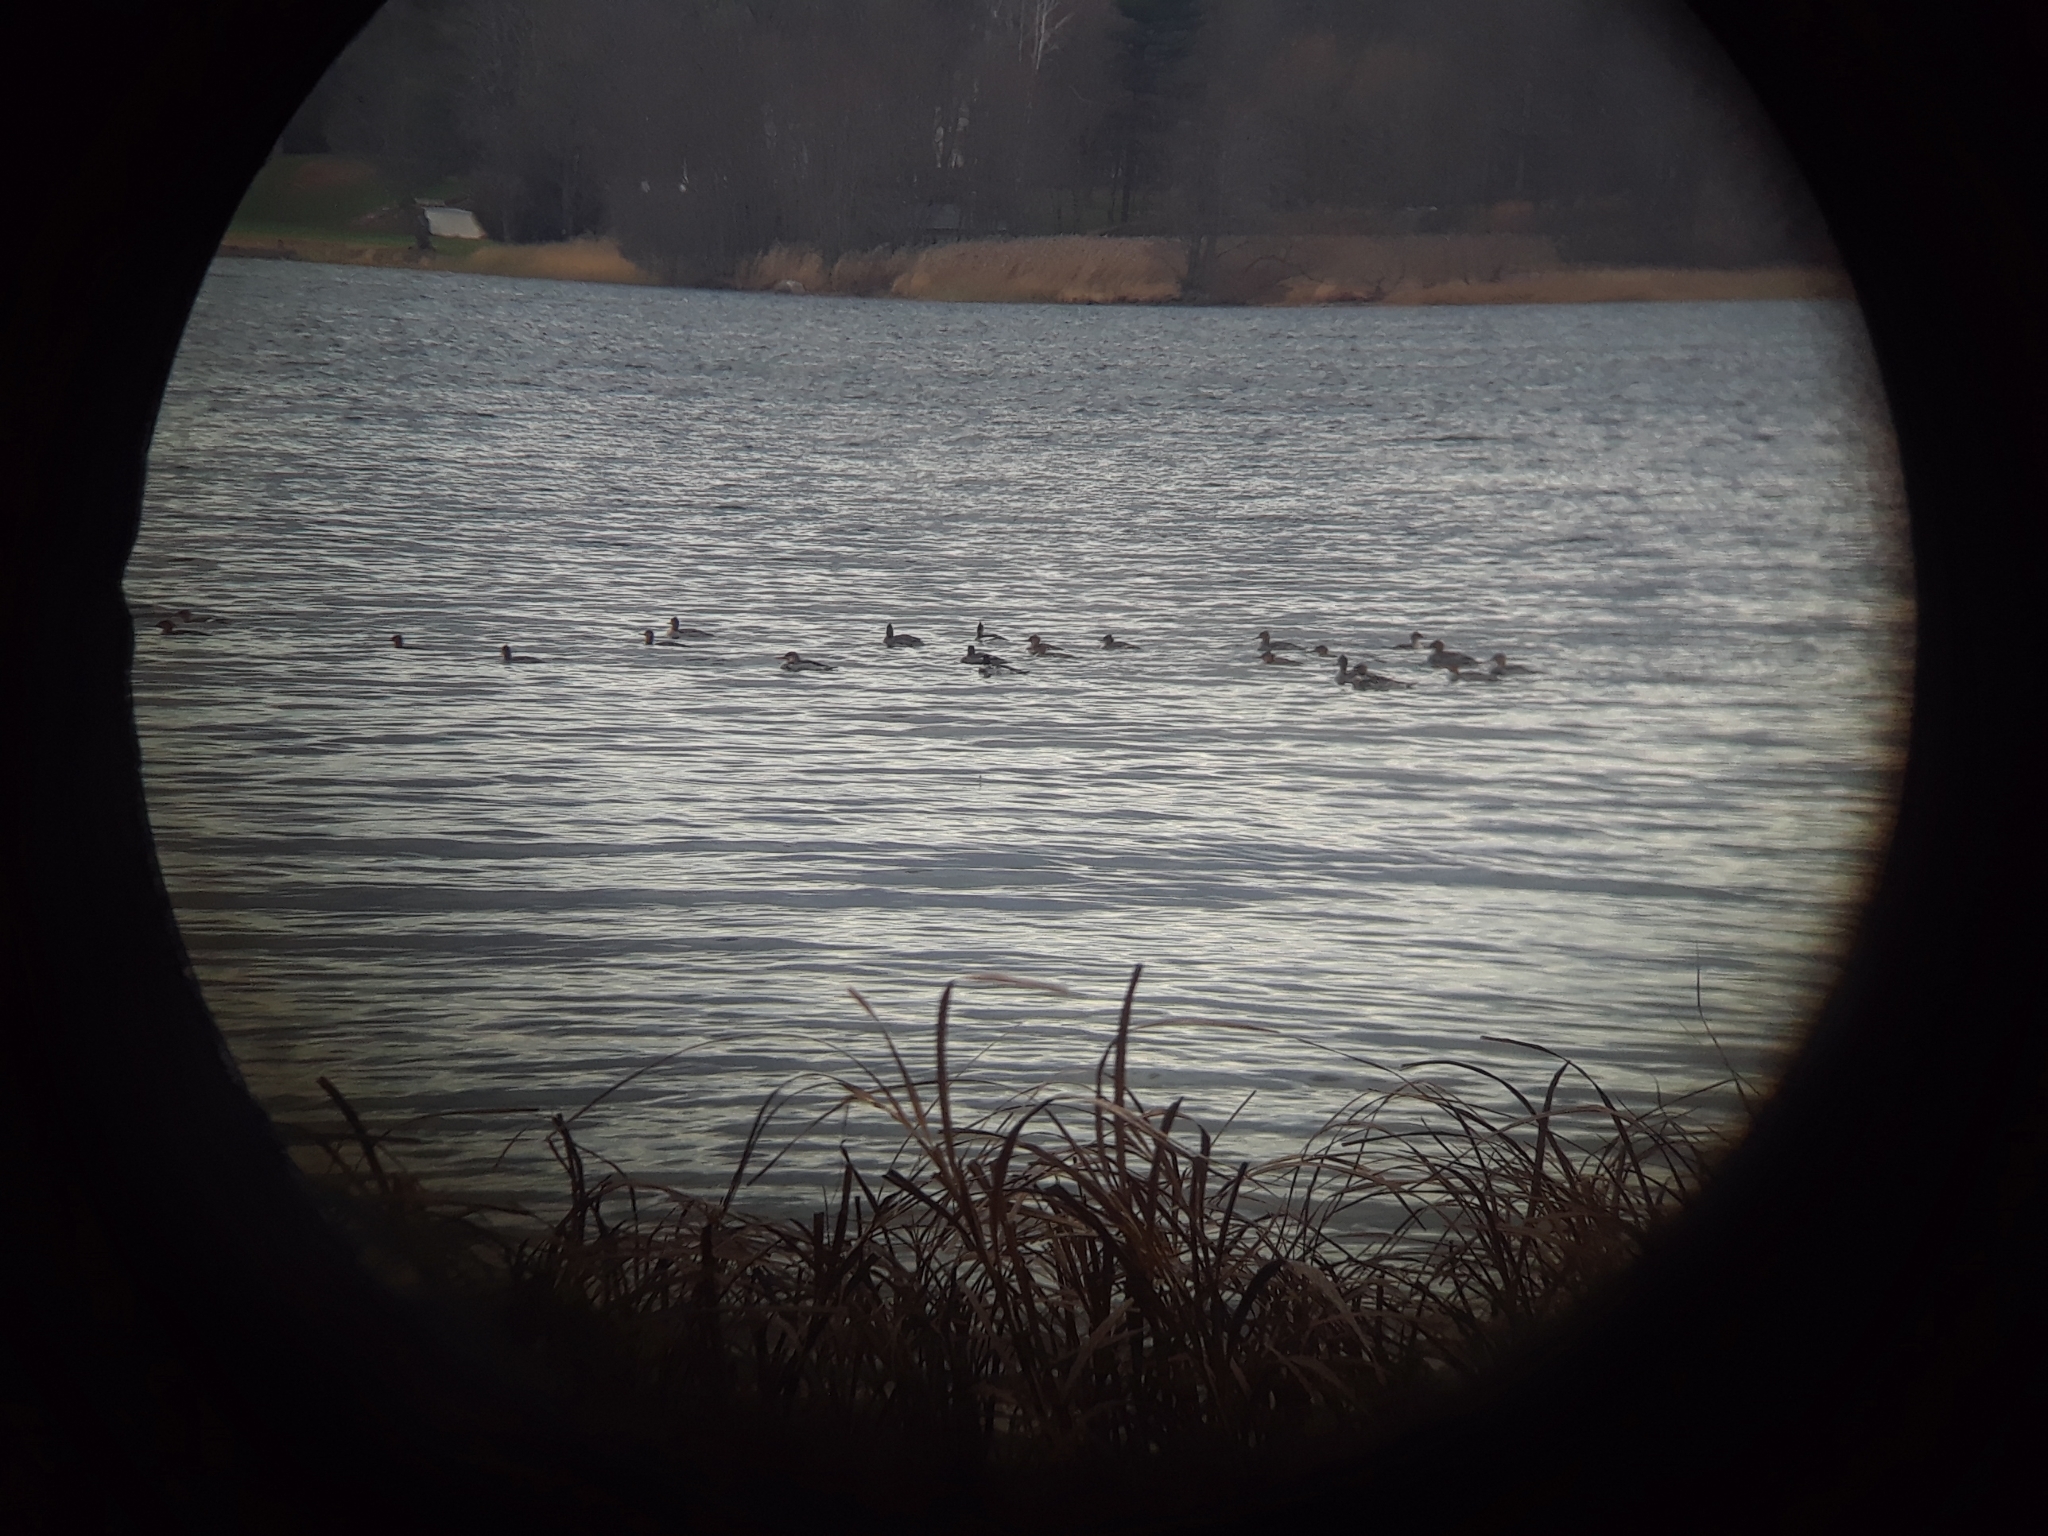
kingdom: Animalia
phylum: Chordata
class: Aves
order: Anseriformes
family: Anatidae
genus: Mergus
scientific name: Mergus serrator
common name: Red-breasted merganser
